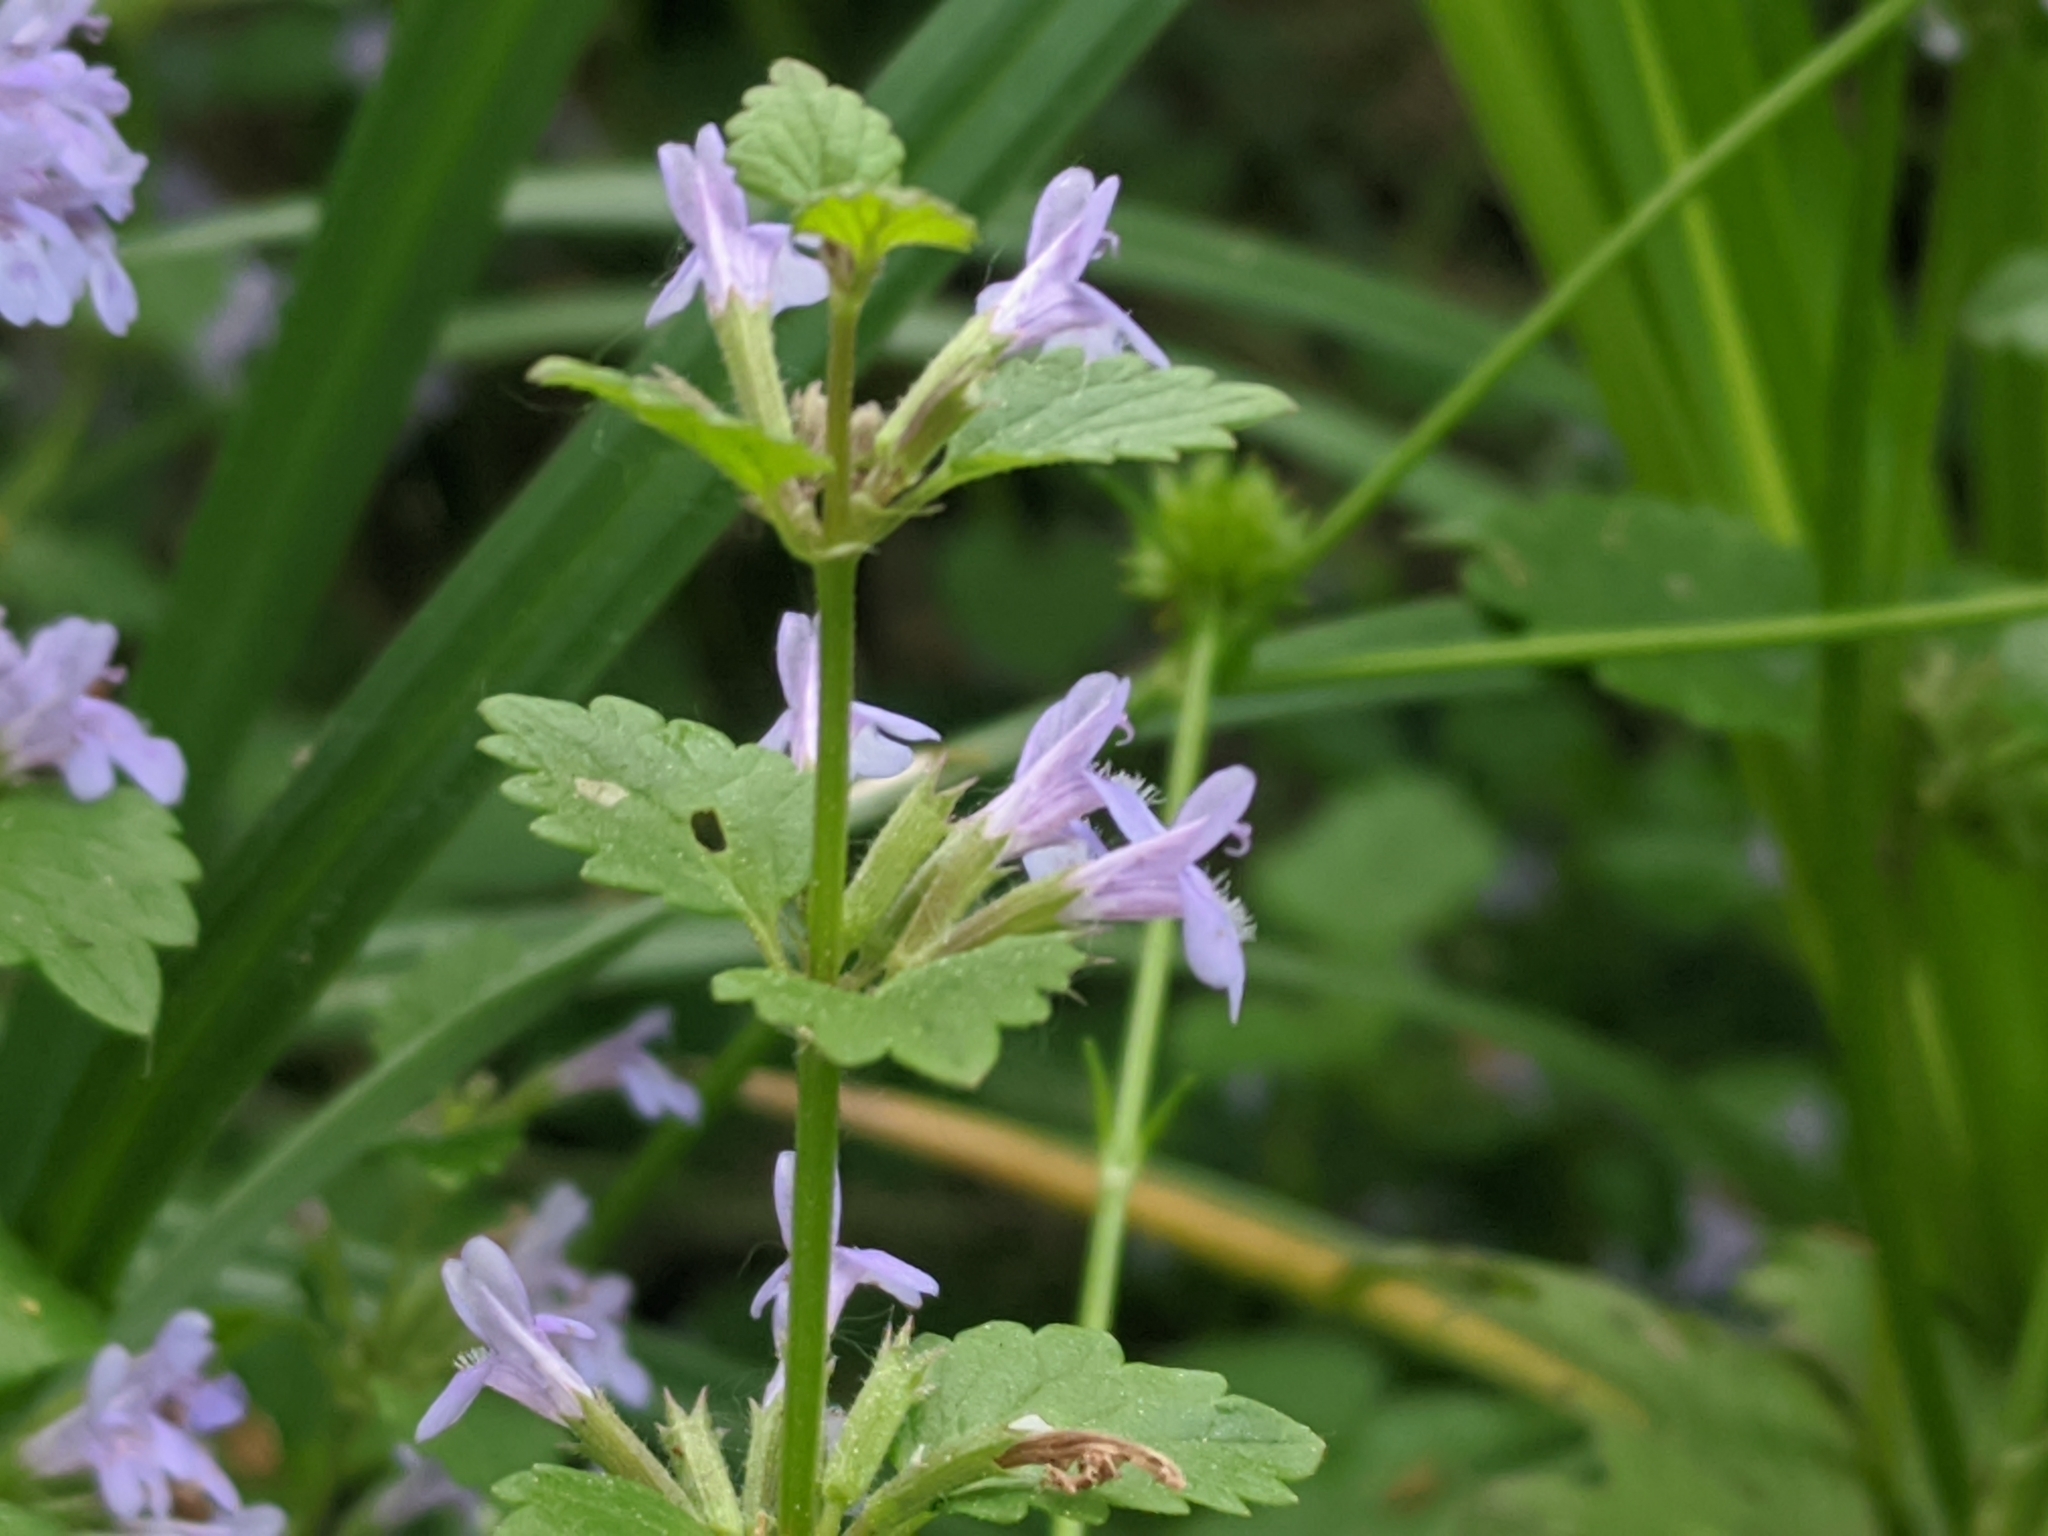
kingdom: Plantae
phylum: Tracheophyta
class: Magnoliopsida
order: Lamiales
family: Lamiaceae
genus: Glechoma
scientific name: Glechoma hederacea
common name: Ground ivy
